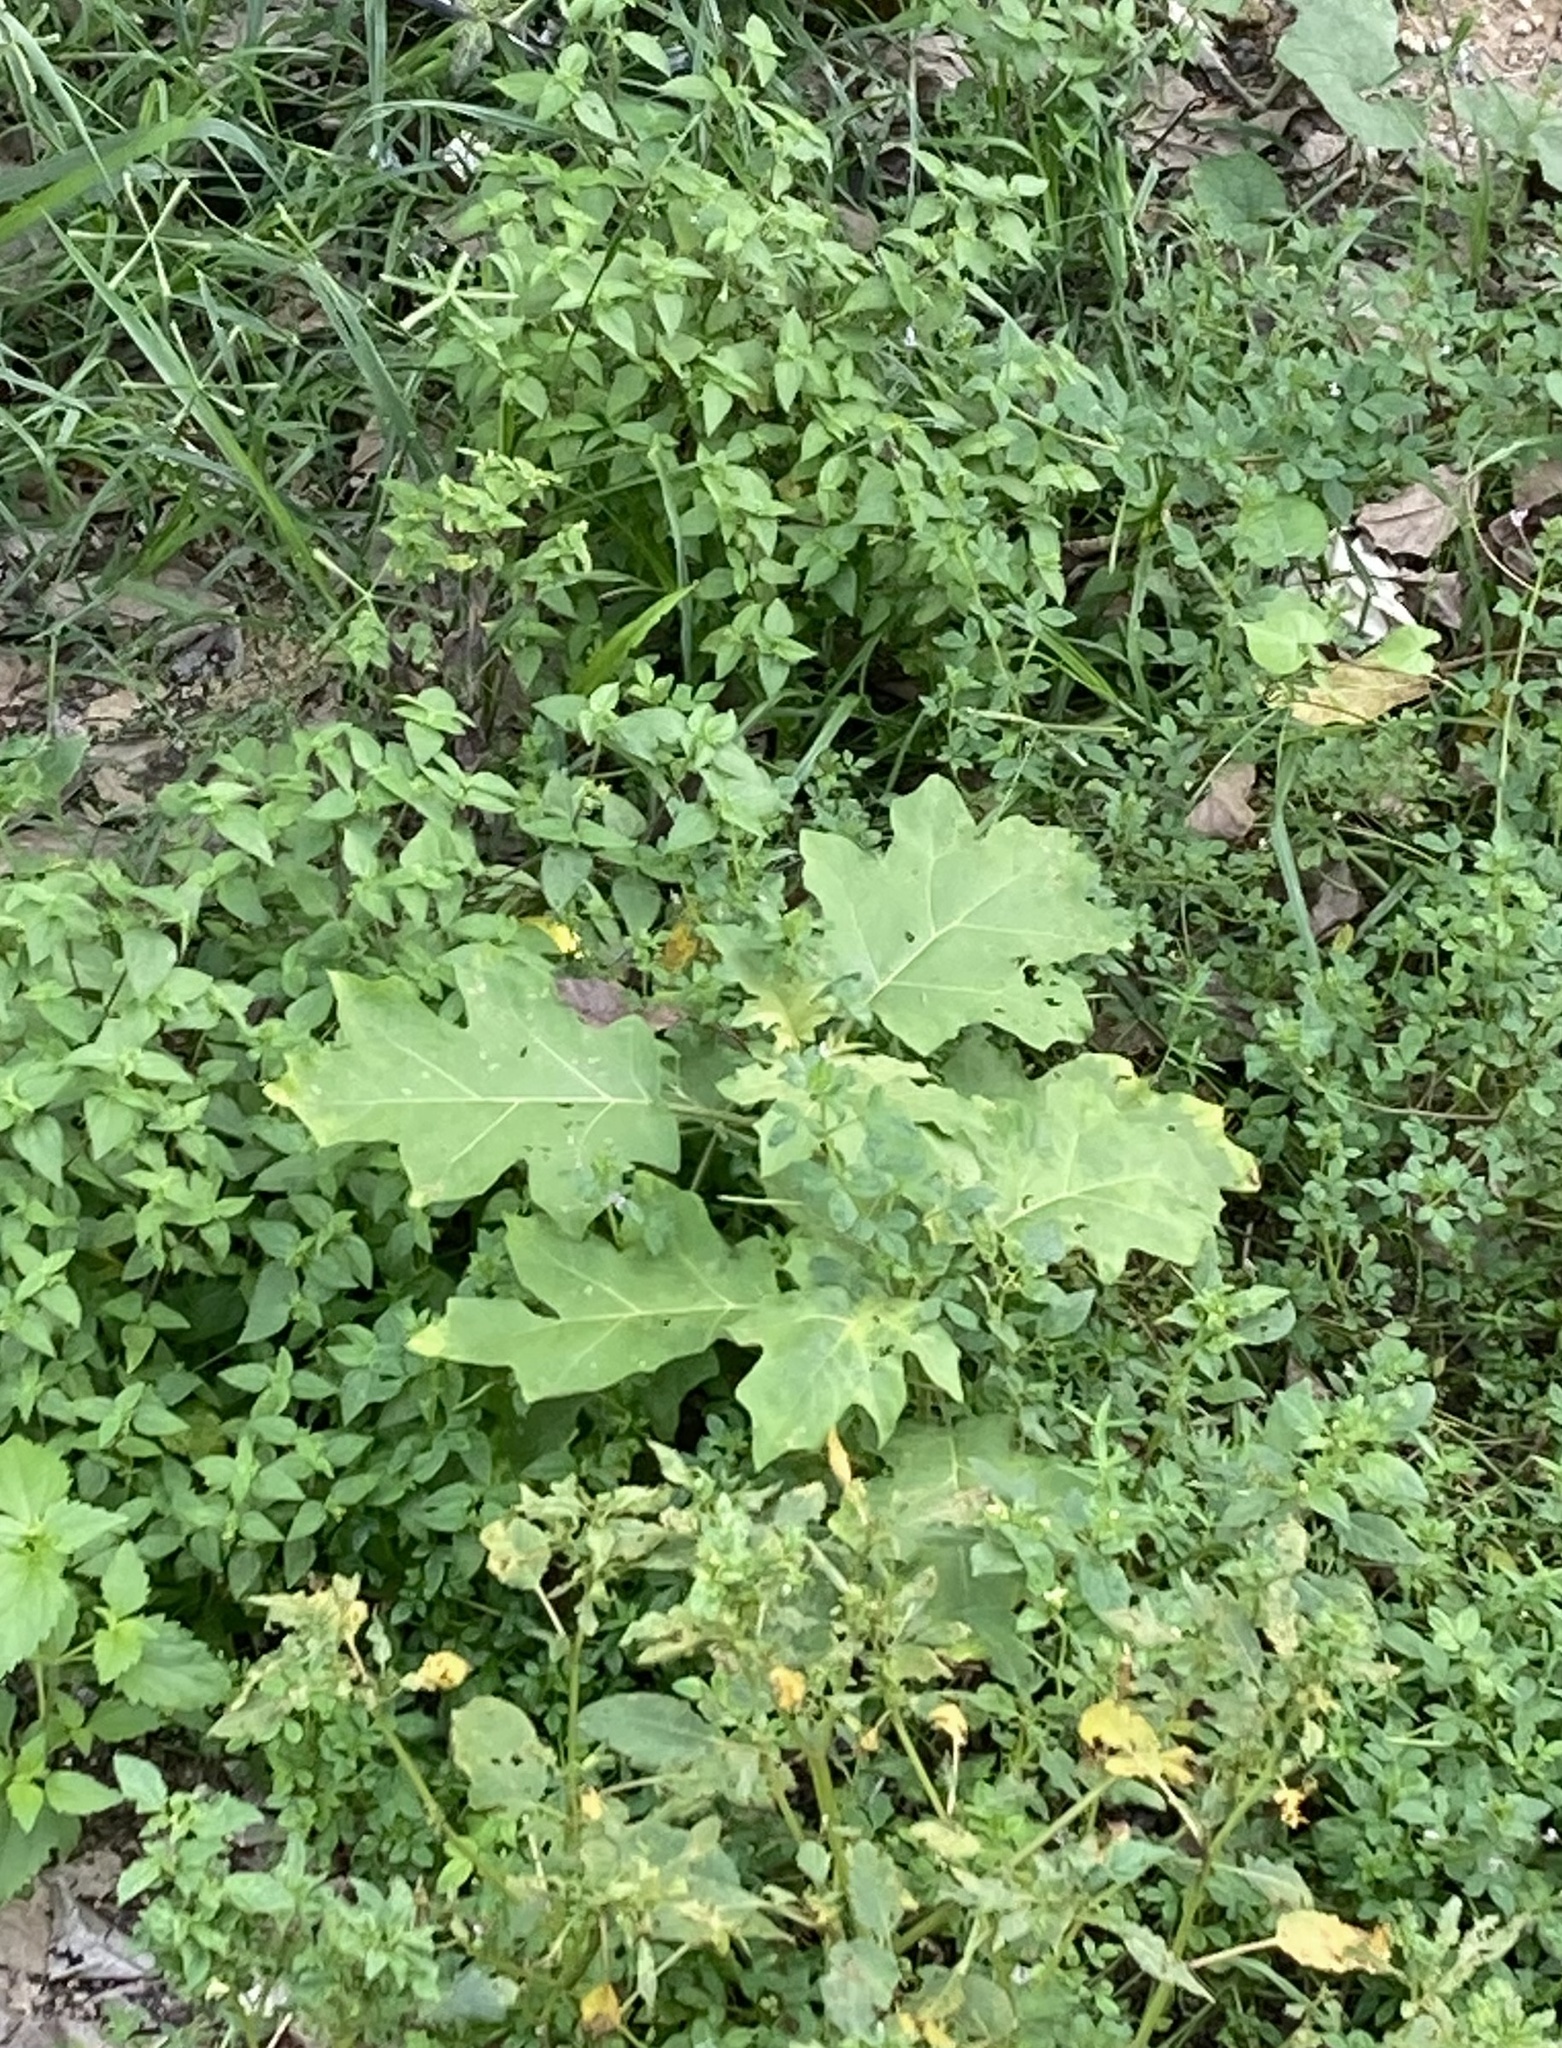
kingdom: Plantae
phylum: Tracheophyta
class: Magnoliopsida
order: Solanales
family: Solanaceae
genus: Solanum
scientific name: Solanum torvum
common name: Turkey berry
